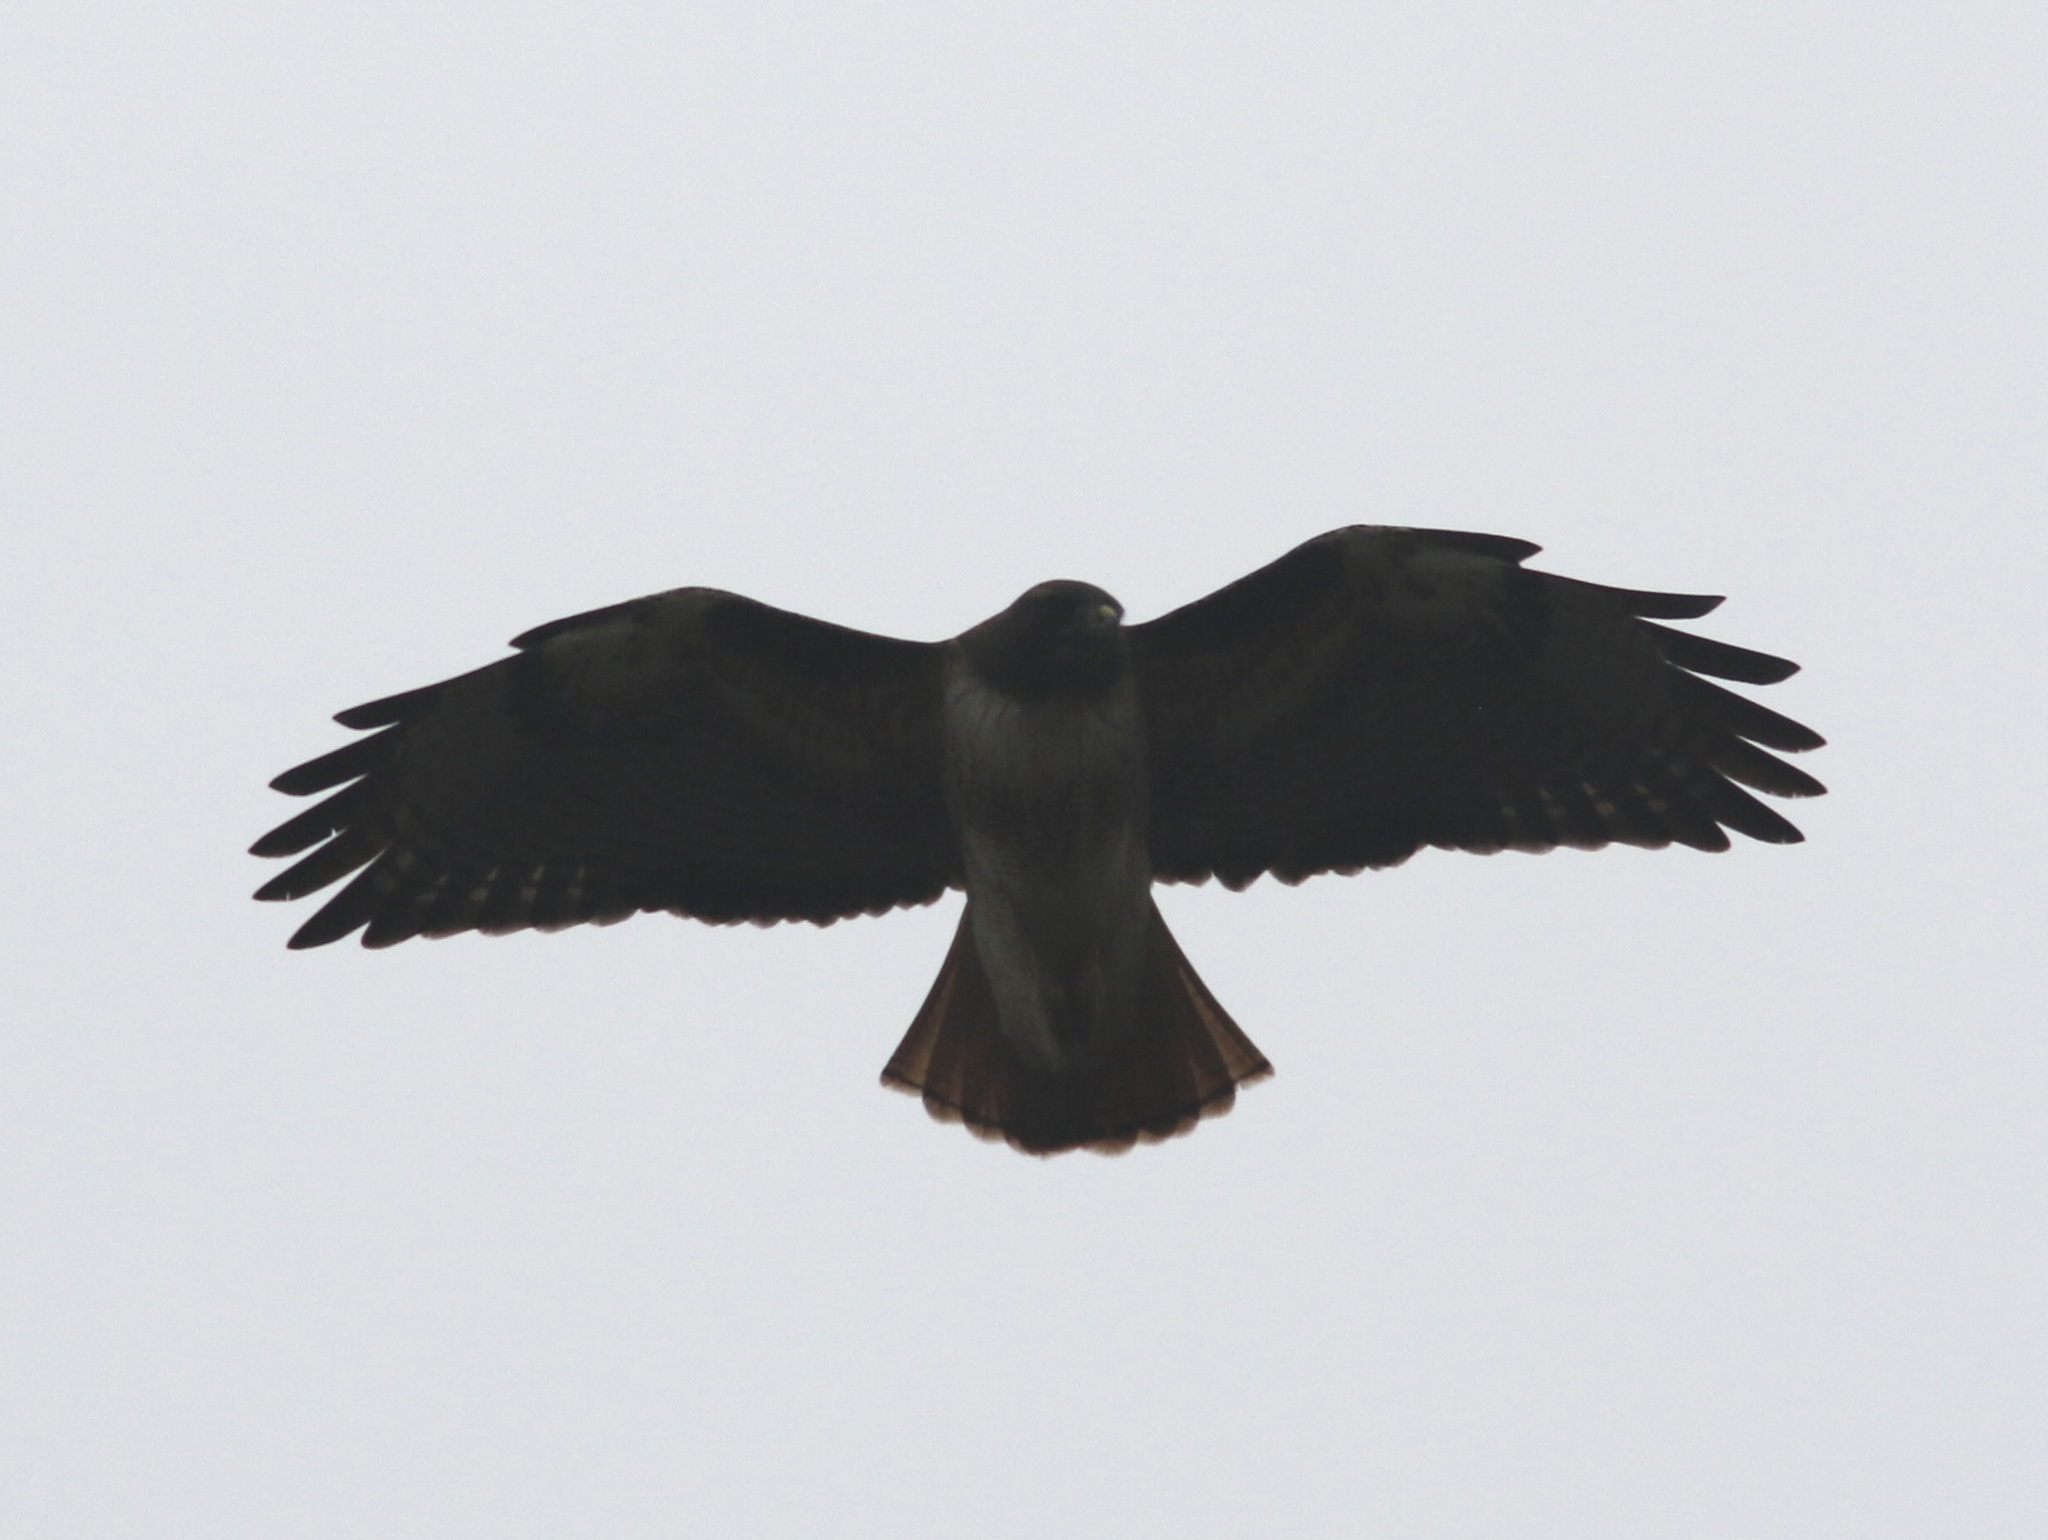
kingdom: Animalia
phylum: Chordata
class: Aves
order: Accipitriformes
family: Accipitridae
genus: Buteo
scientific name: Buteo jamaicensis
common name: Red-tailed hawk
